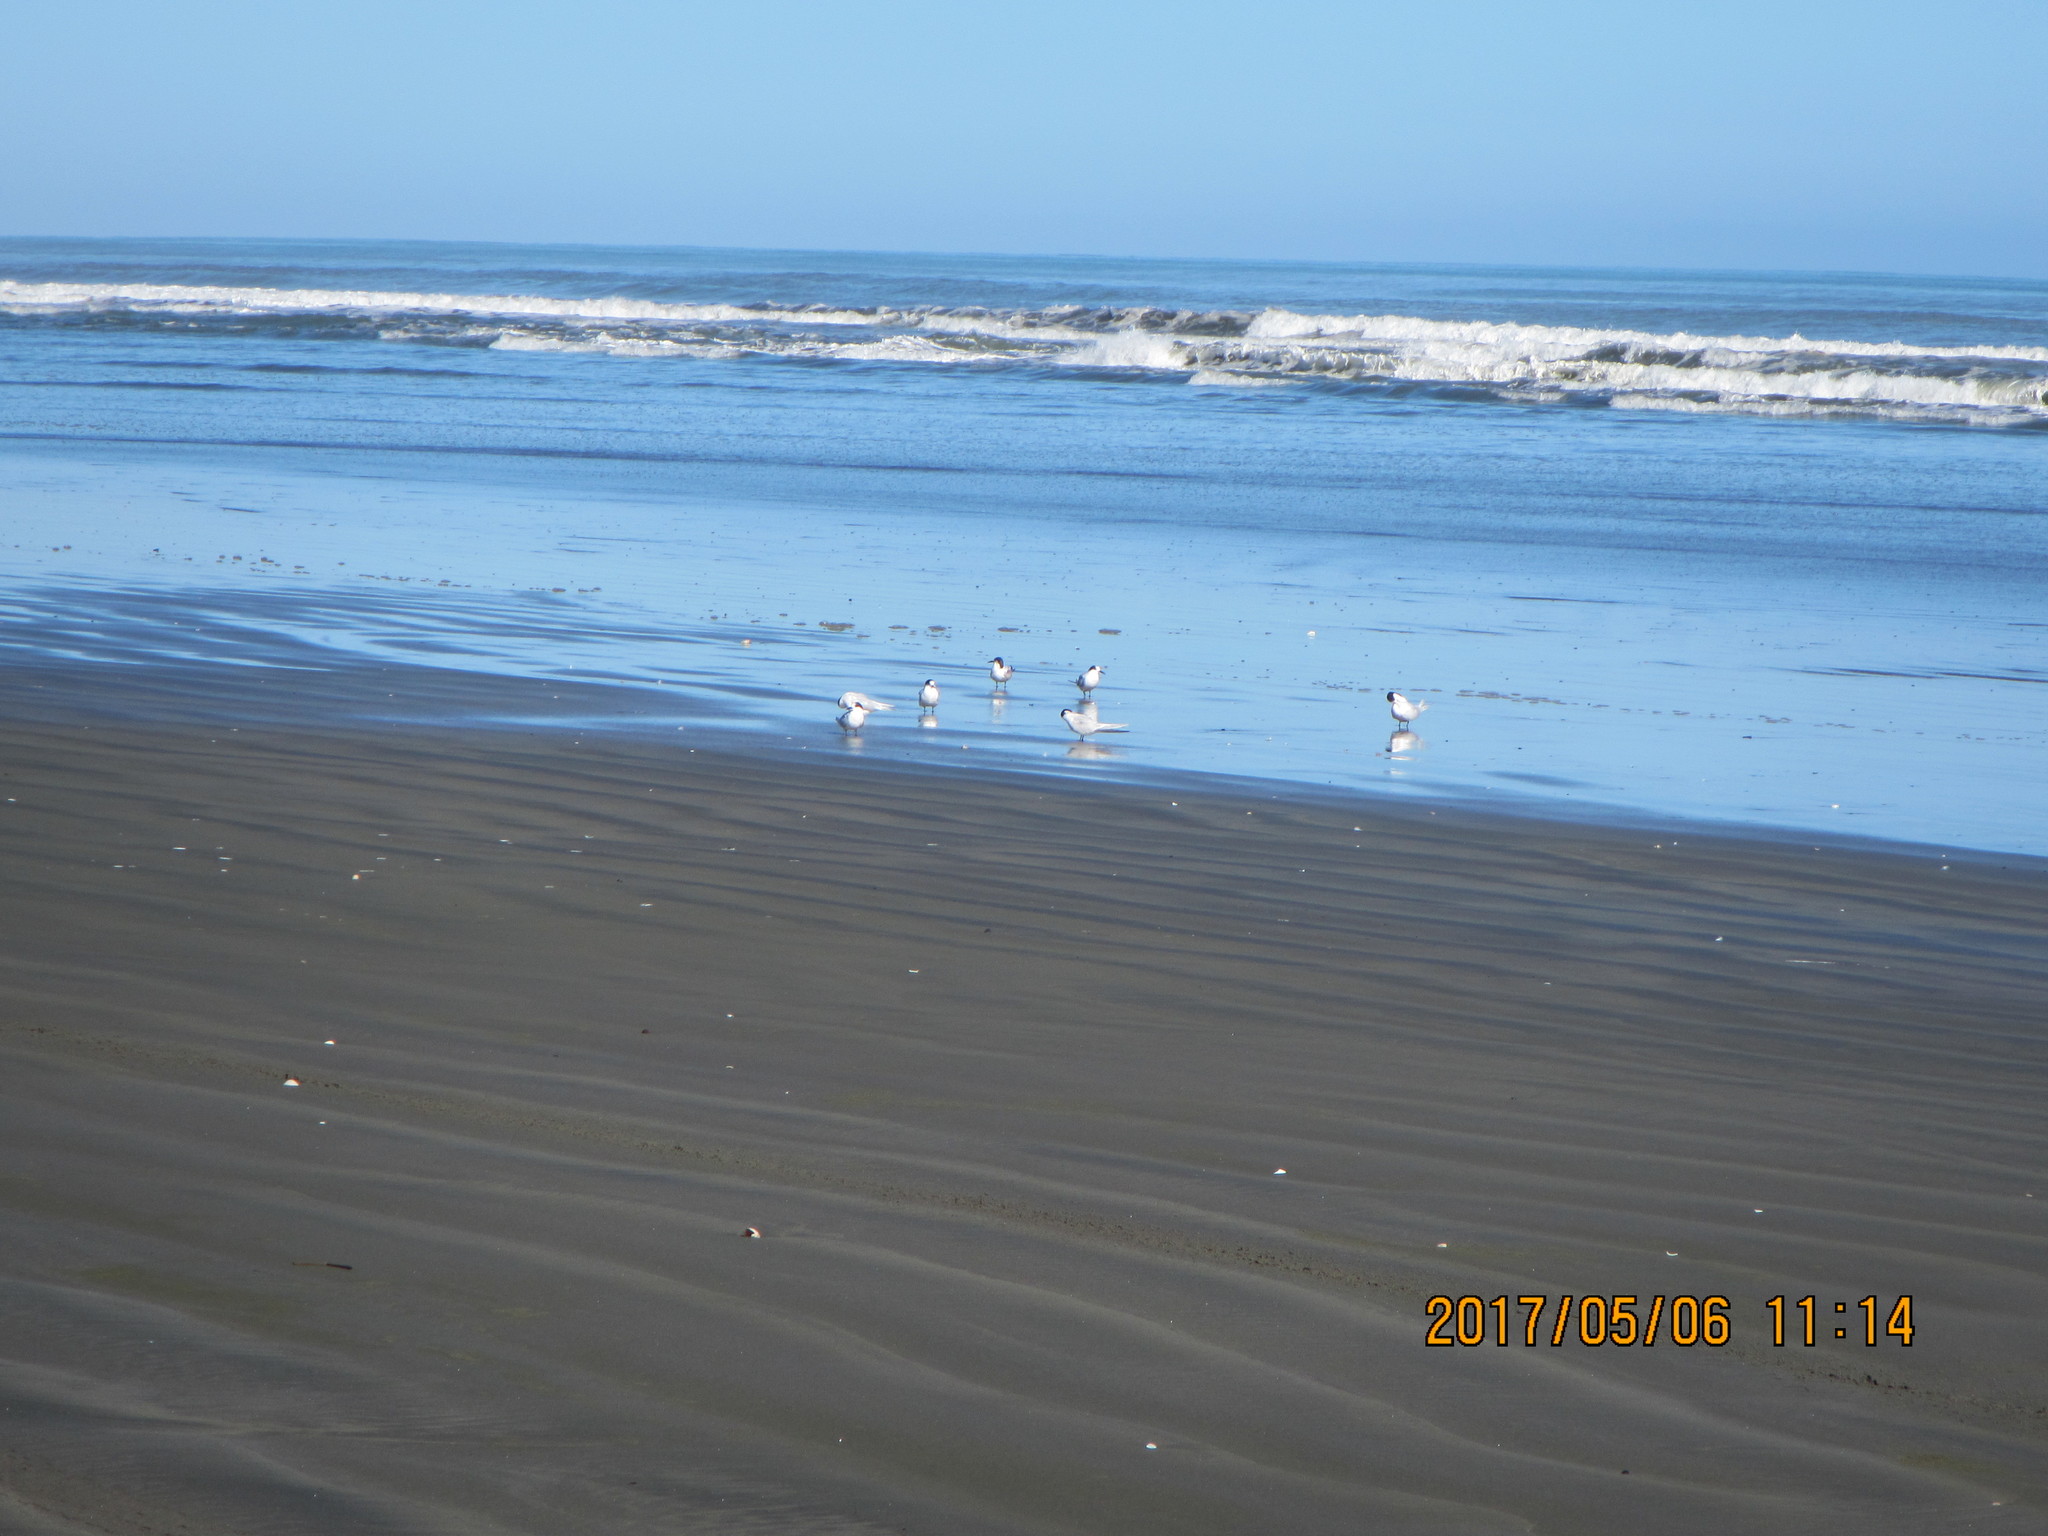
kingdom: Animalia
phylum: Chordata
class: Aves
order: Charadriiformes
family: Laridae
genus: Sterna
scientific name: Sterna striata
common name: White-fronted tern
